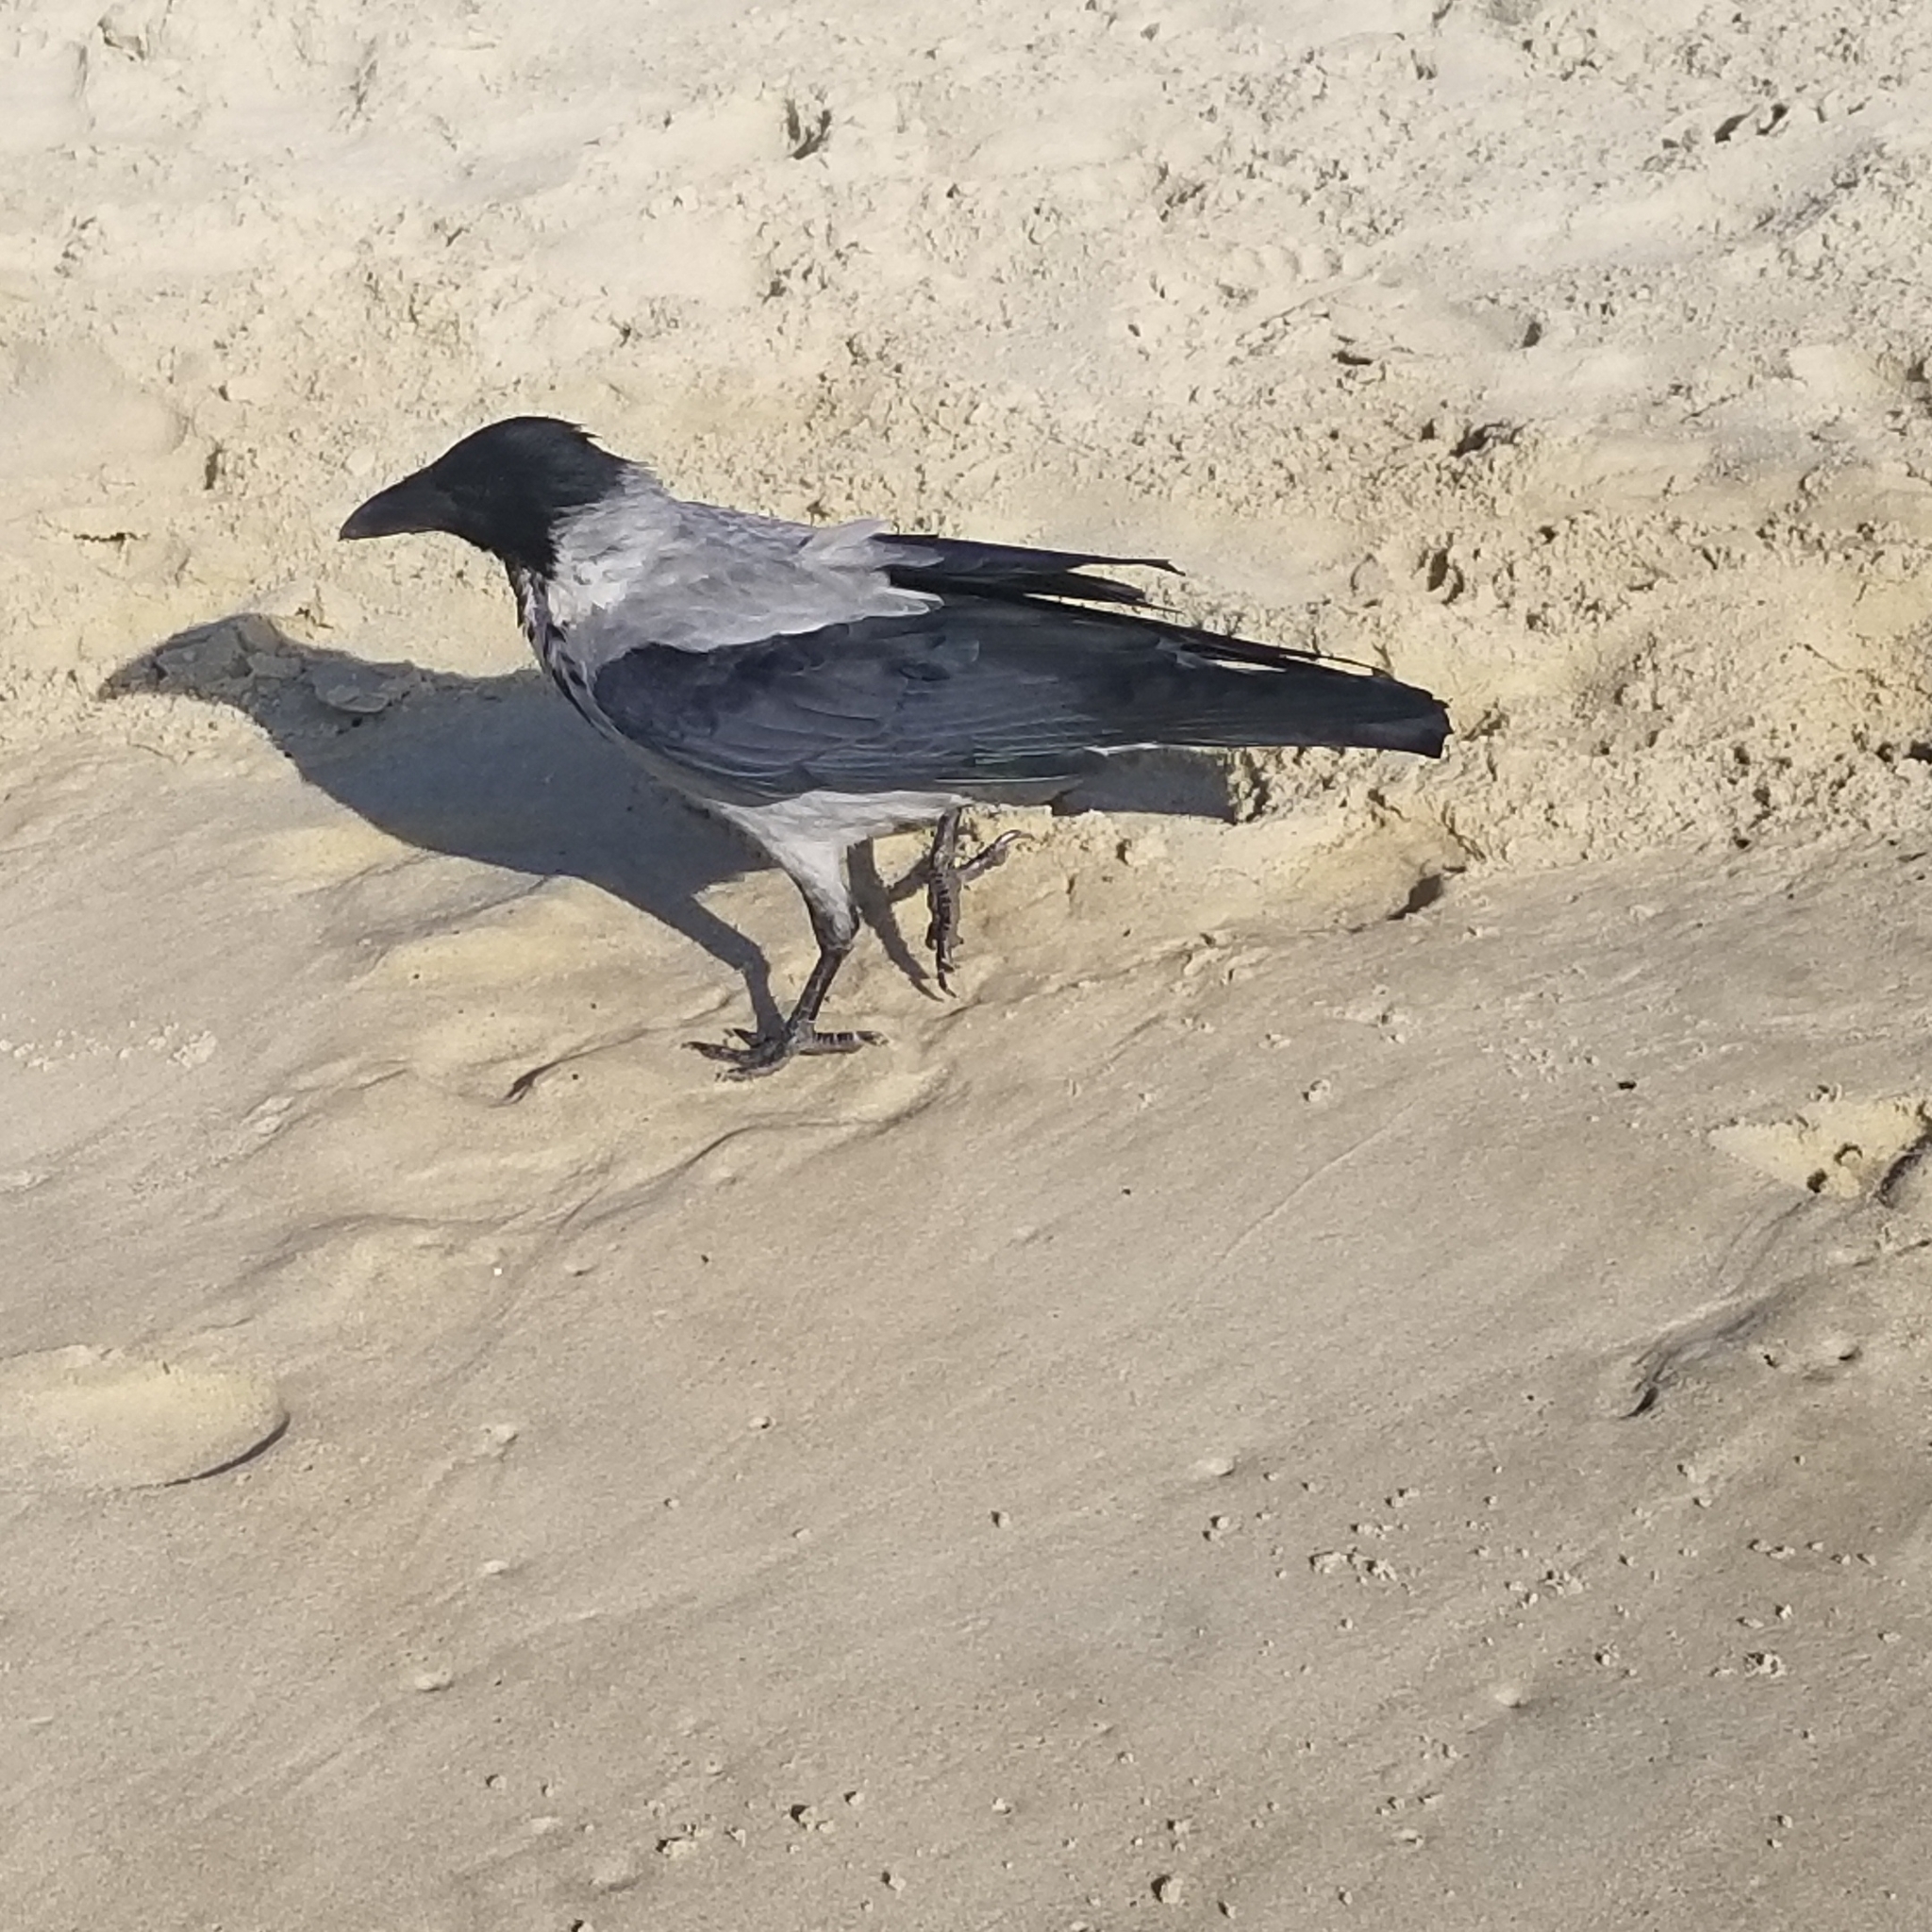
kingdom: Animalia
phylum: Chordata
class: Aves
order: Passeriformes
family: Corvidae
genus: Corvus
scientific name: Corvus cornix
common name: Hooded crow
